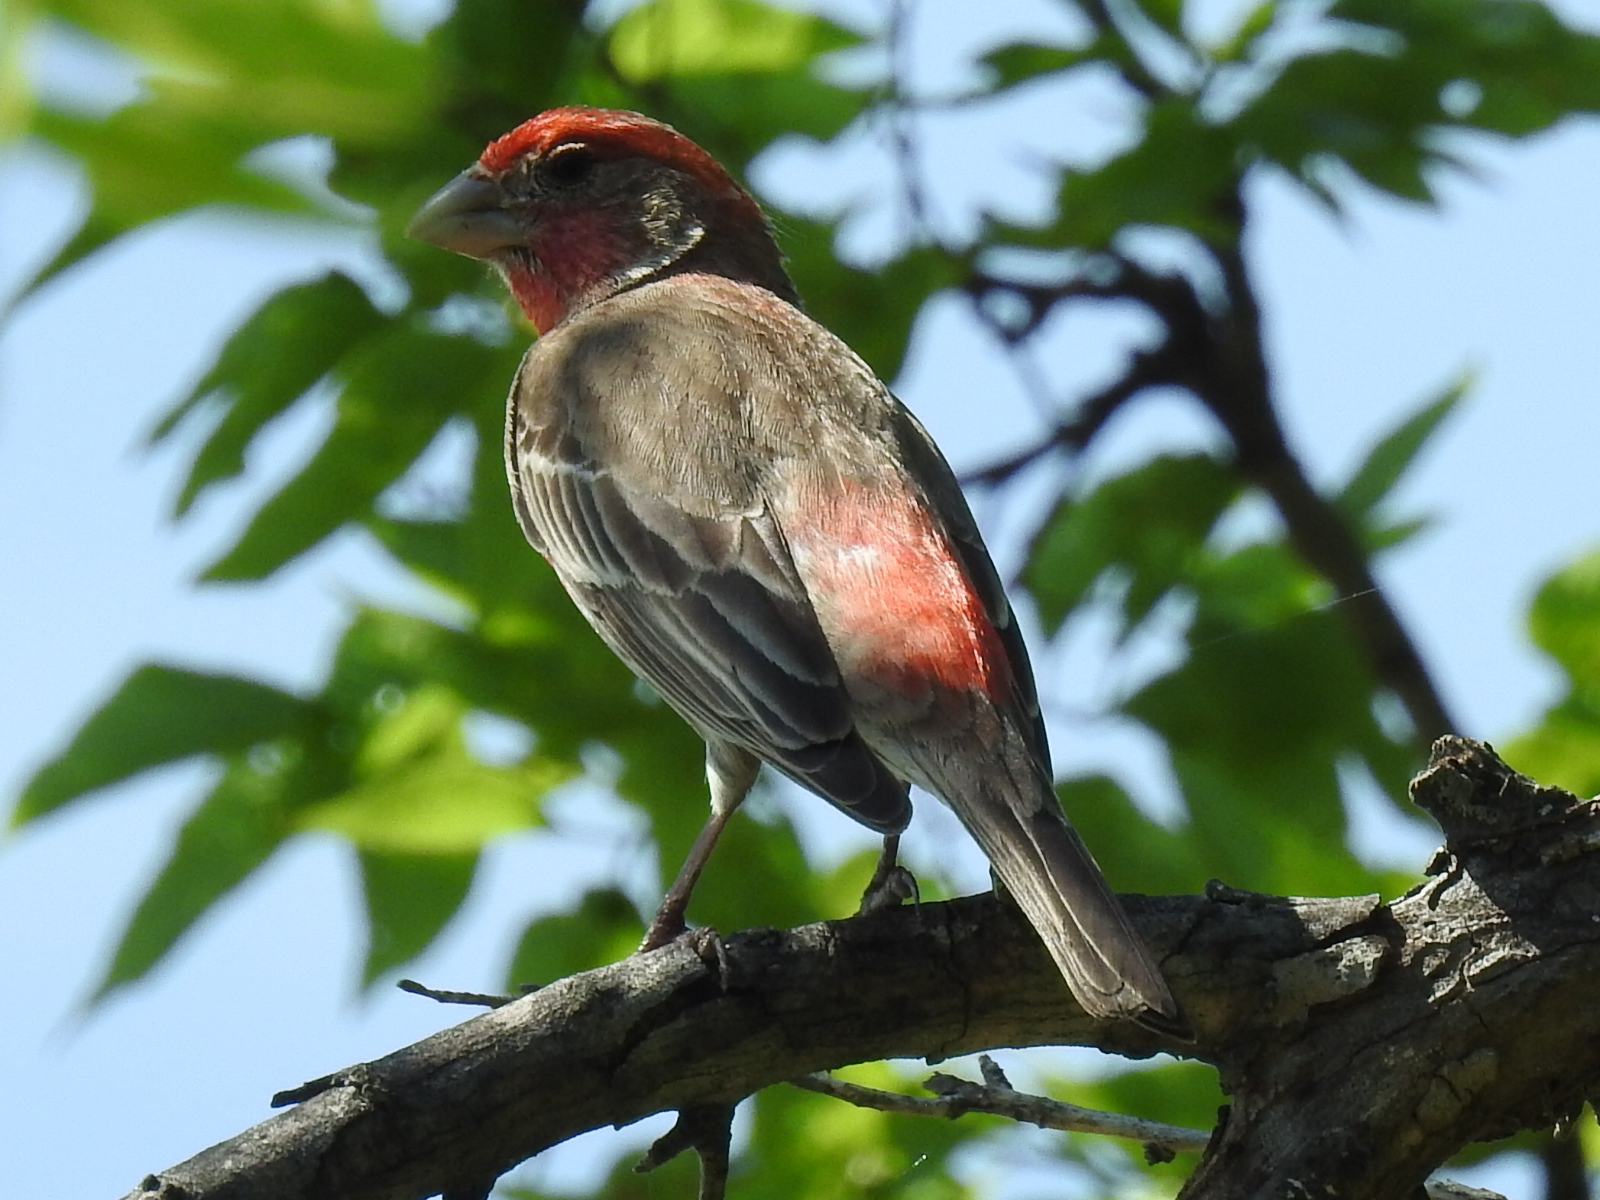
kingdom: Animalia
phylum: Chordata
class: Aves
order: Passeriformes
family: Fringillidae
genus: Haemorhous
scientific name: Haemorhous mexicanus
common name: House finch
